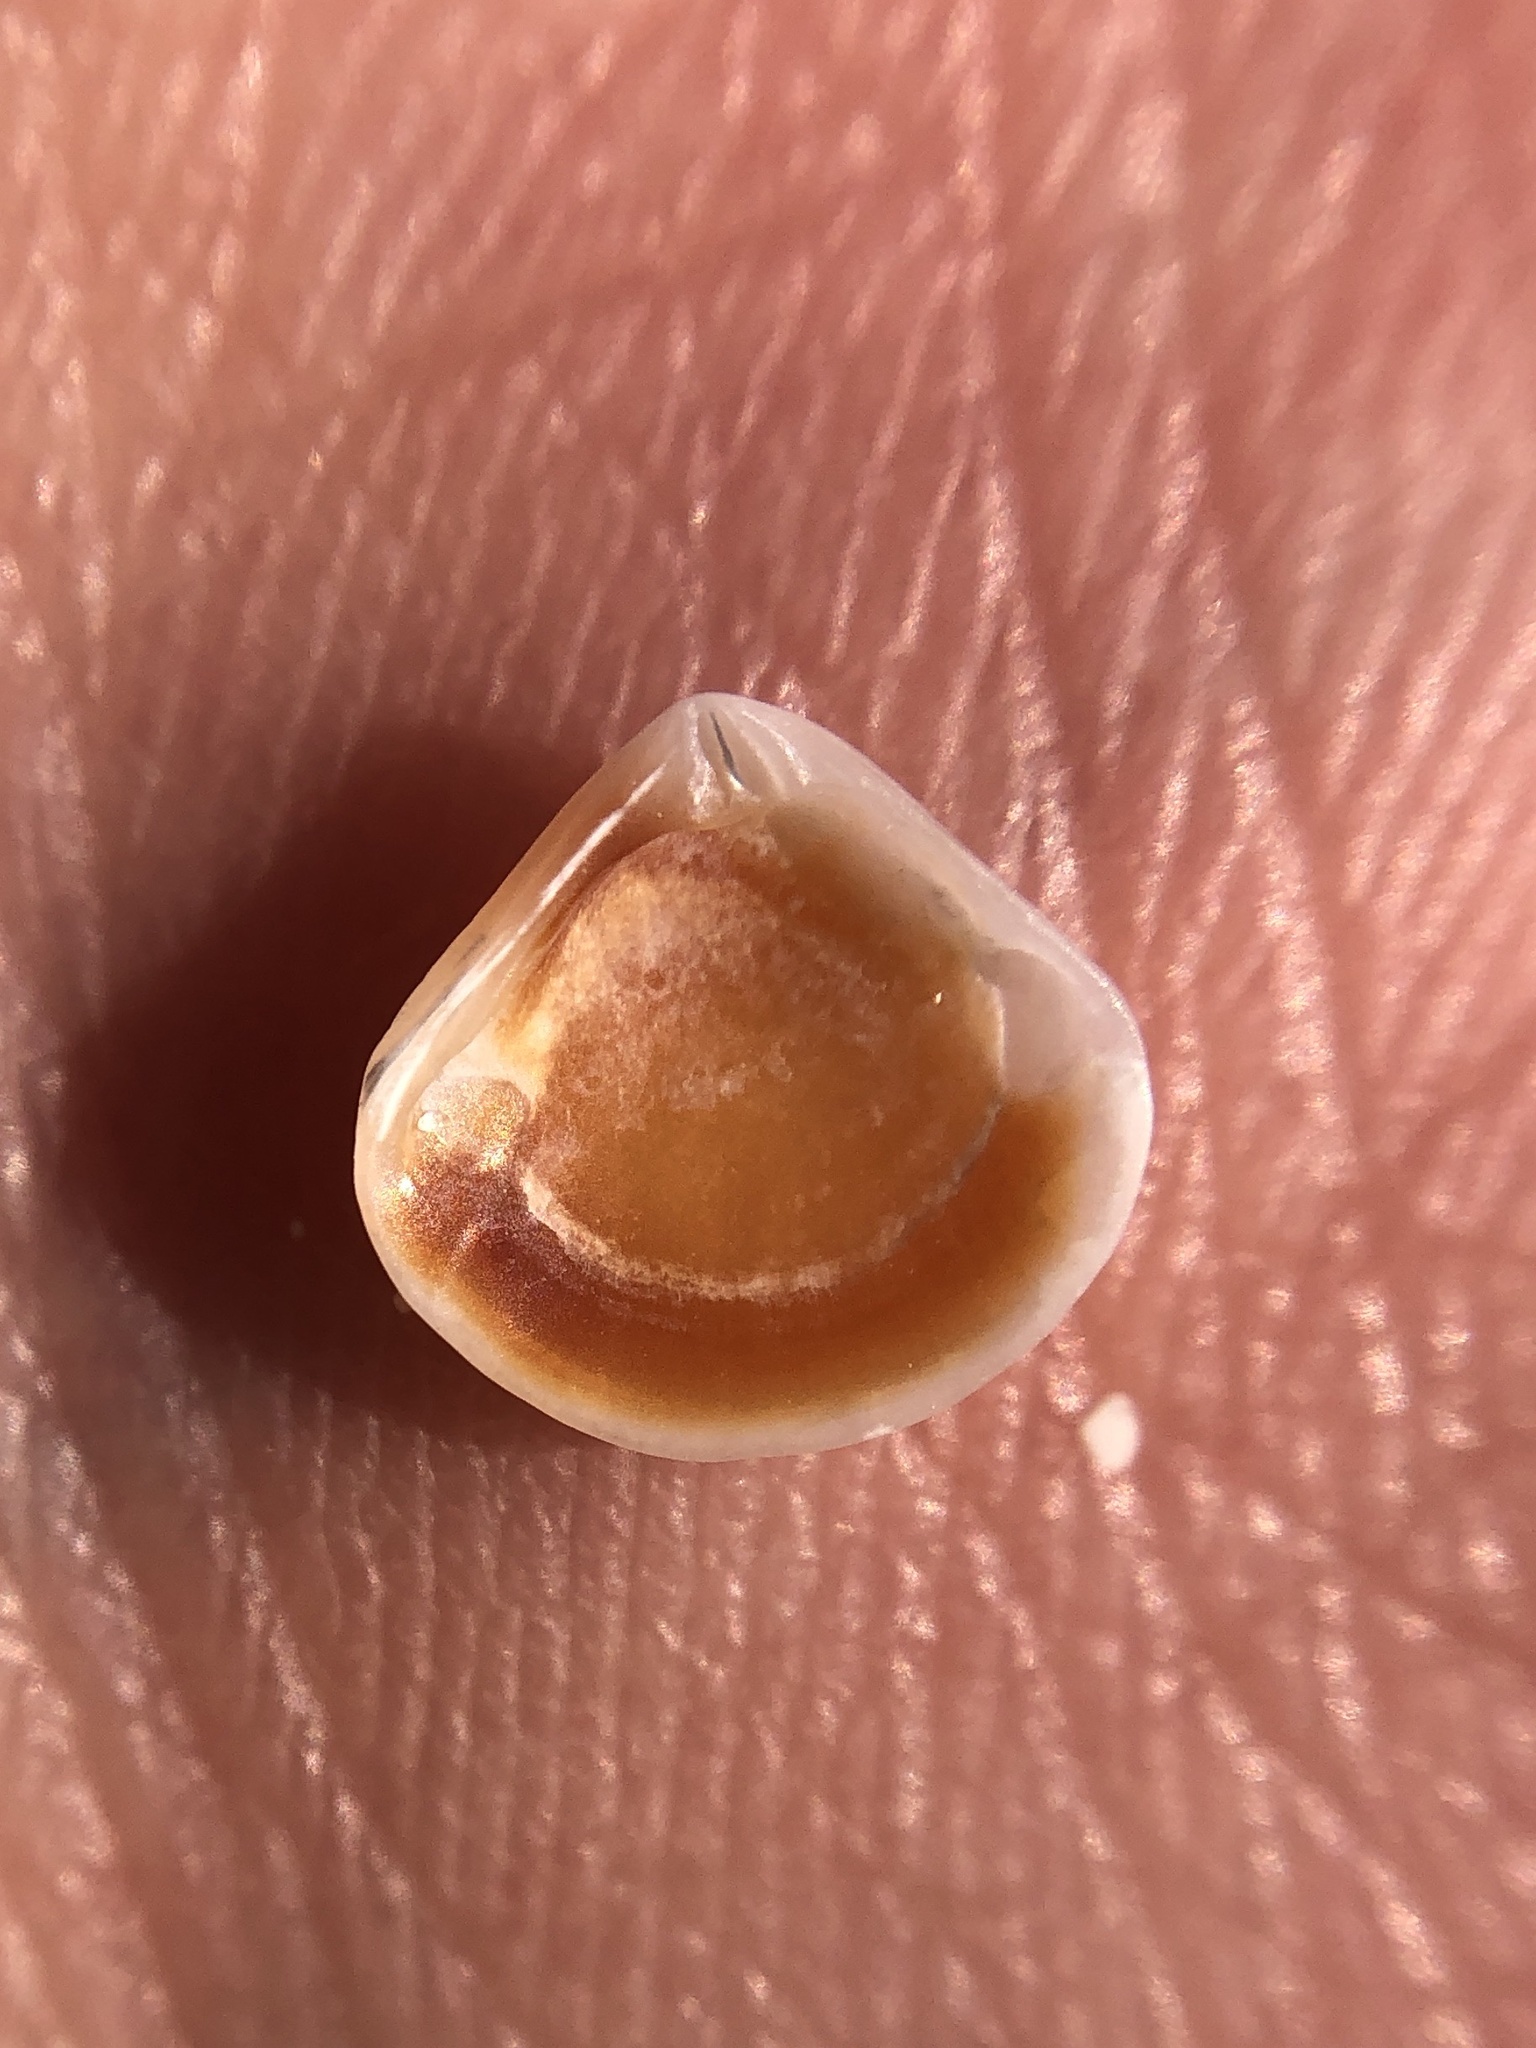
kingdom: Animalia
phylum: Mollusca
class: Bivalvia
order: Carditida
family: Crassatellidae
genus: Crassinella
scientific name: Crassinella lunulata
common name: Lunate crassinella
